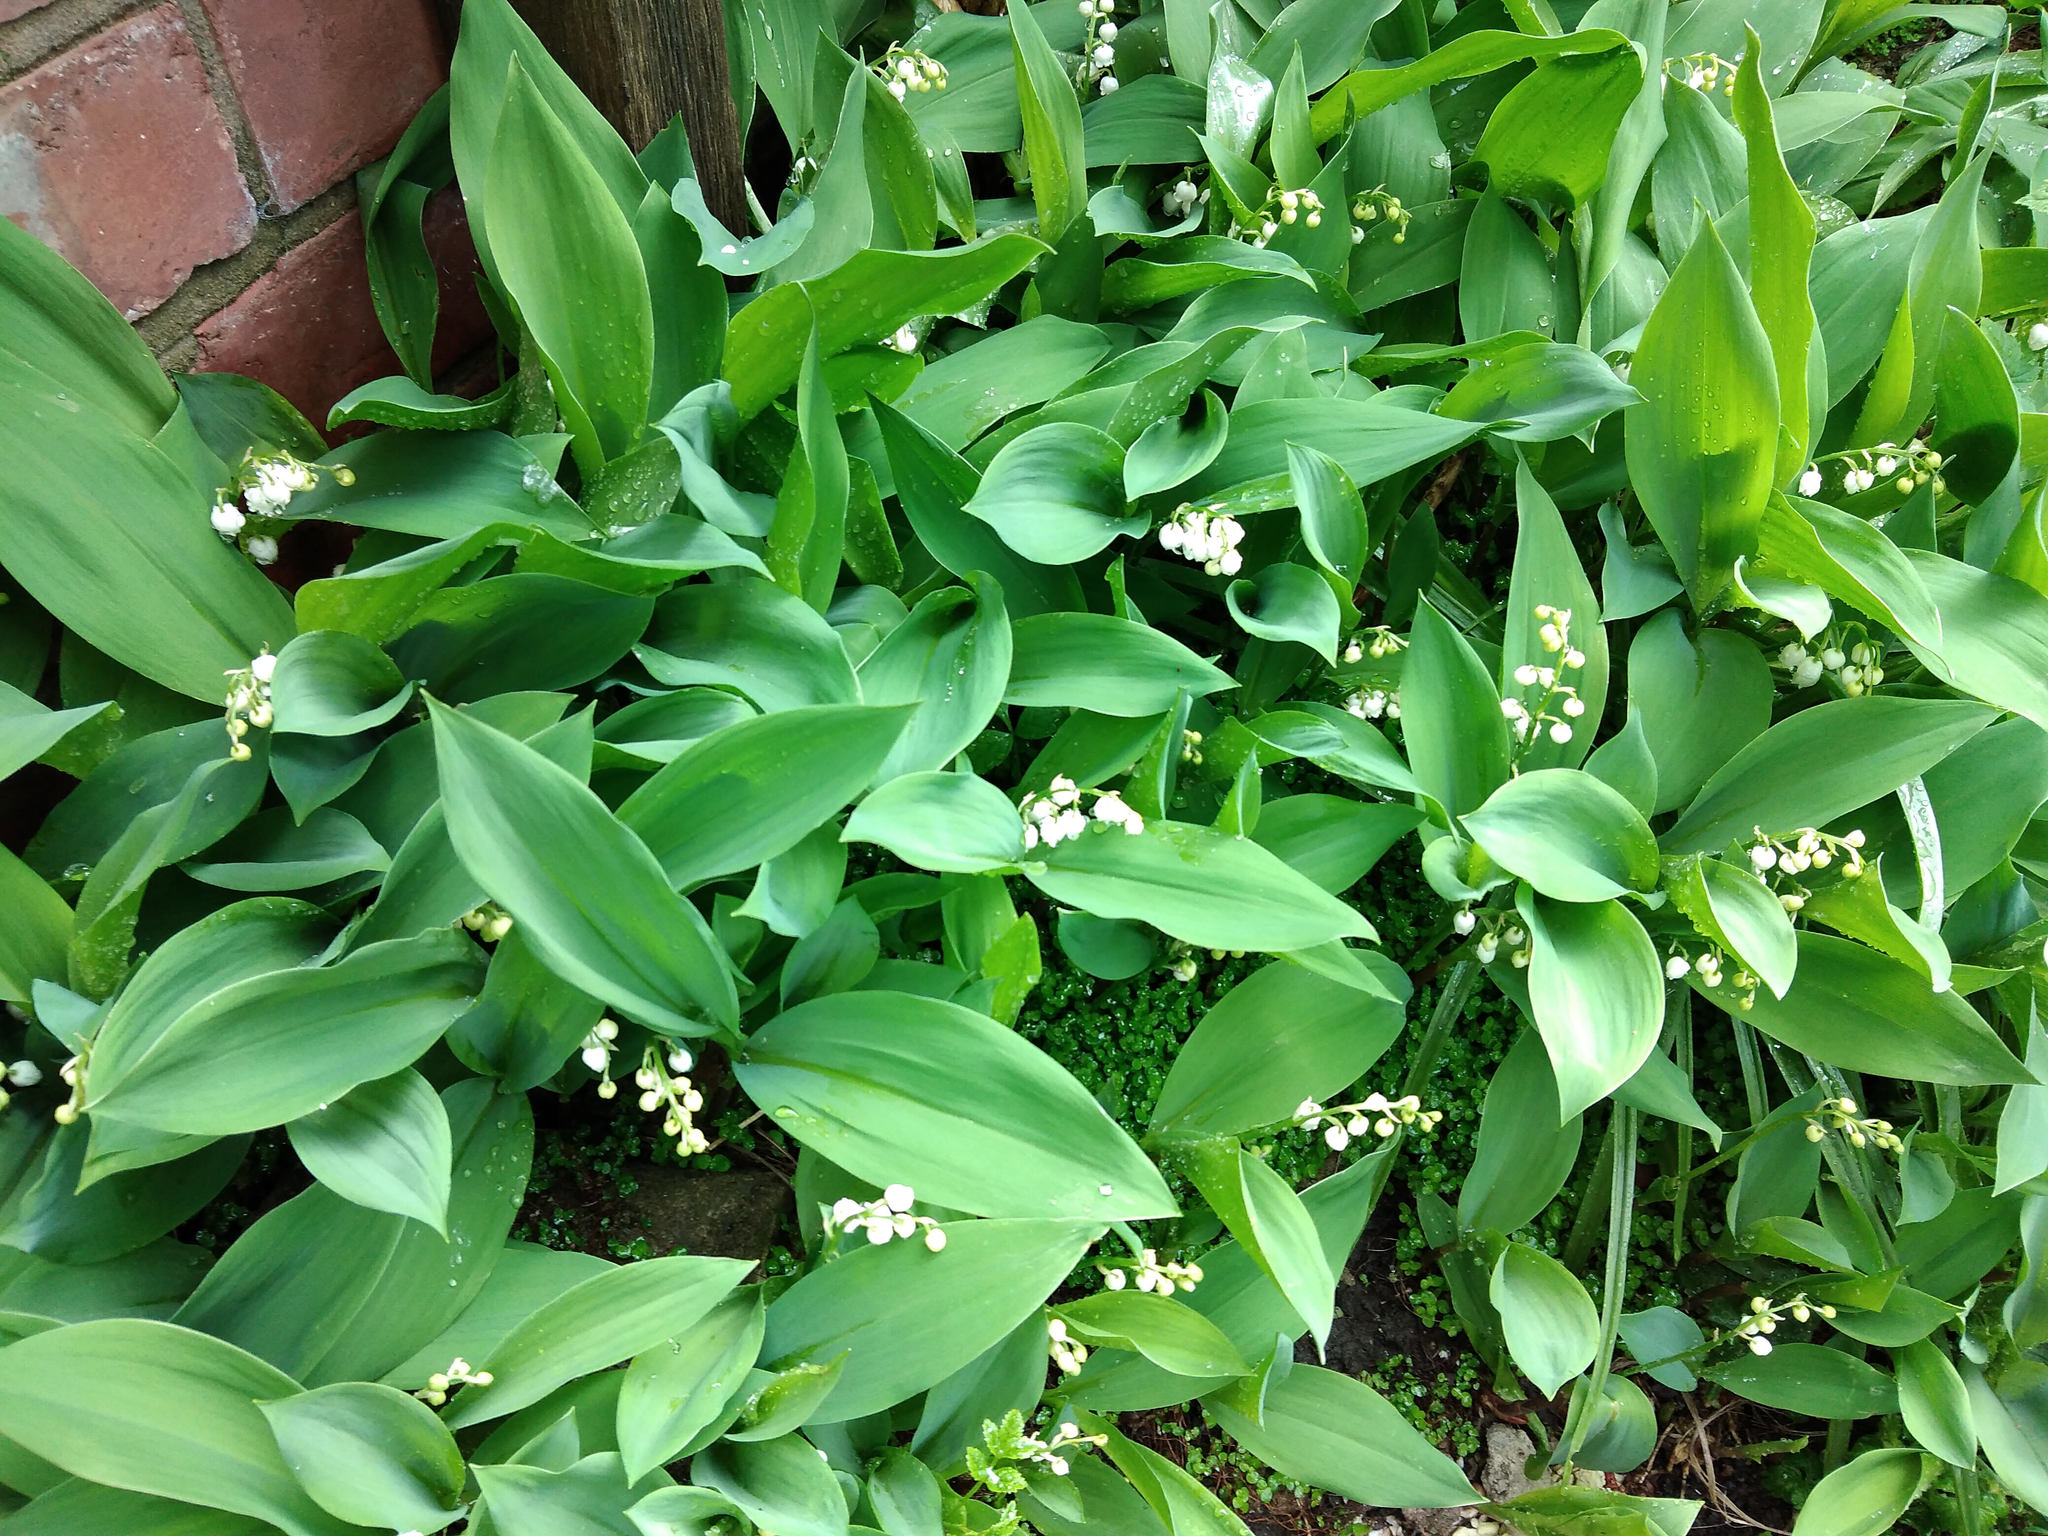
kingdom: Plantae
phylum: Tracheophyta
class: Liliopsida
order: Asparagales
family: Asparagaceae
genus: Convallaria
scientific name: Convallaria majalis
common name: Lily-of-the-valley
